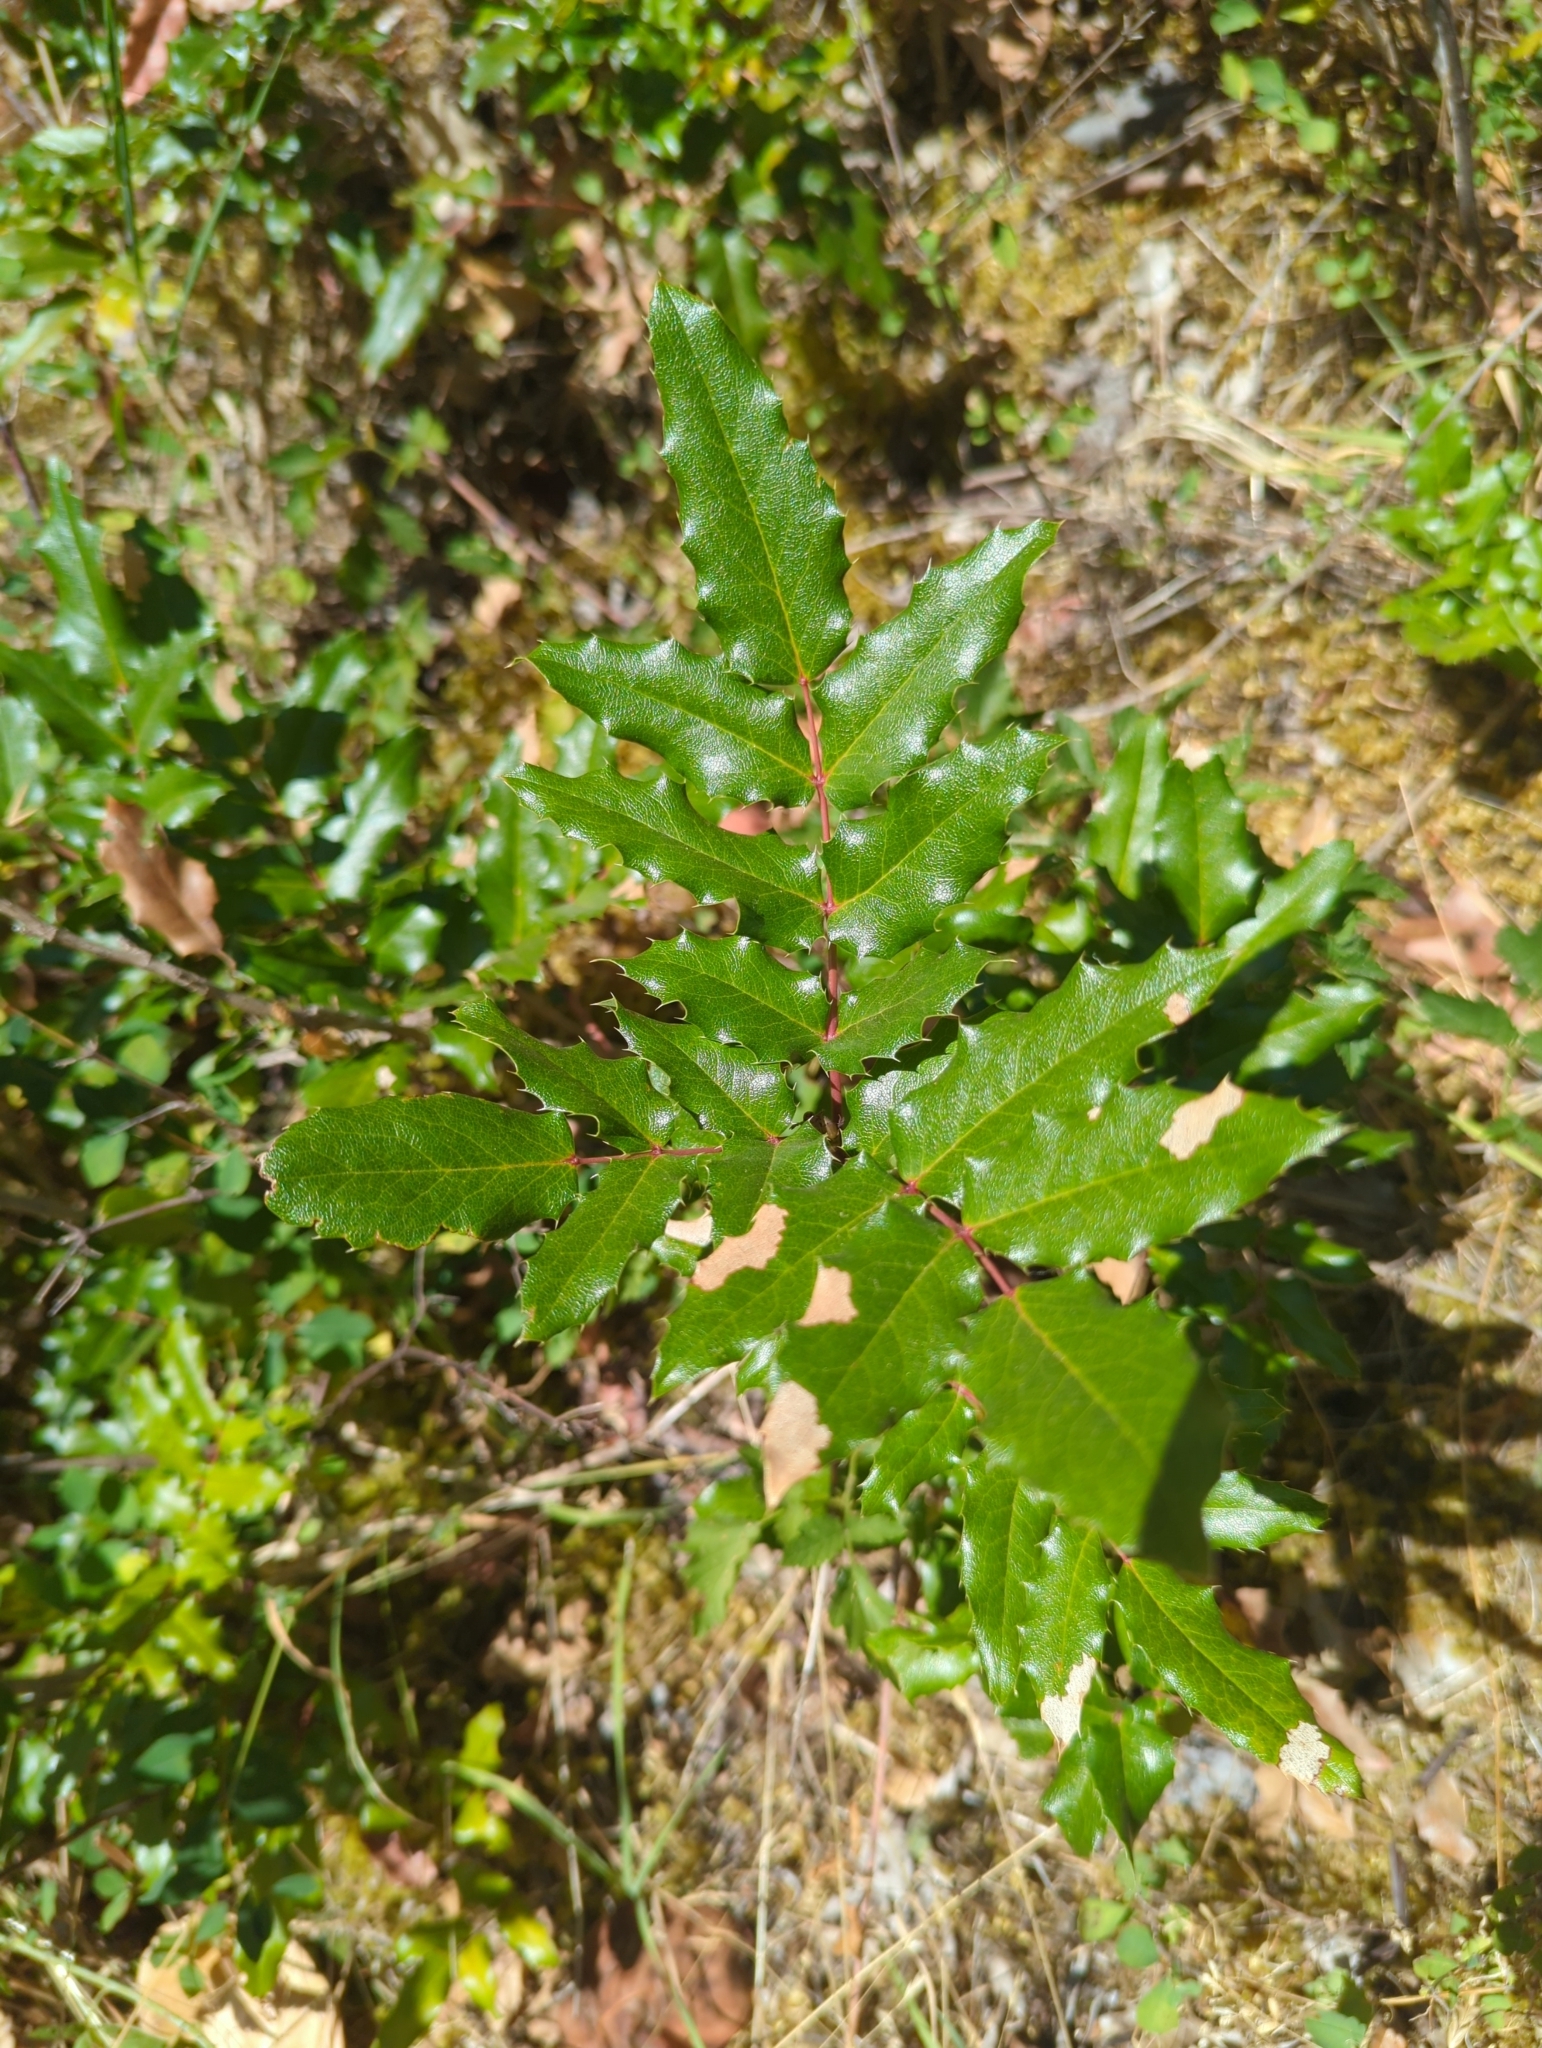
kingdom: Plantae
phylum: Tracheophyta
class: Magnoliopsida
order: Ranunculales
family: Berberidaceae
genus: Mahonia
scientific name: Mahonia aquifolium
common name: Oregon-grape
